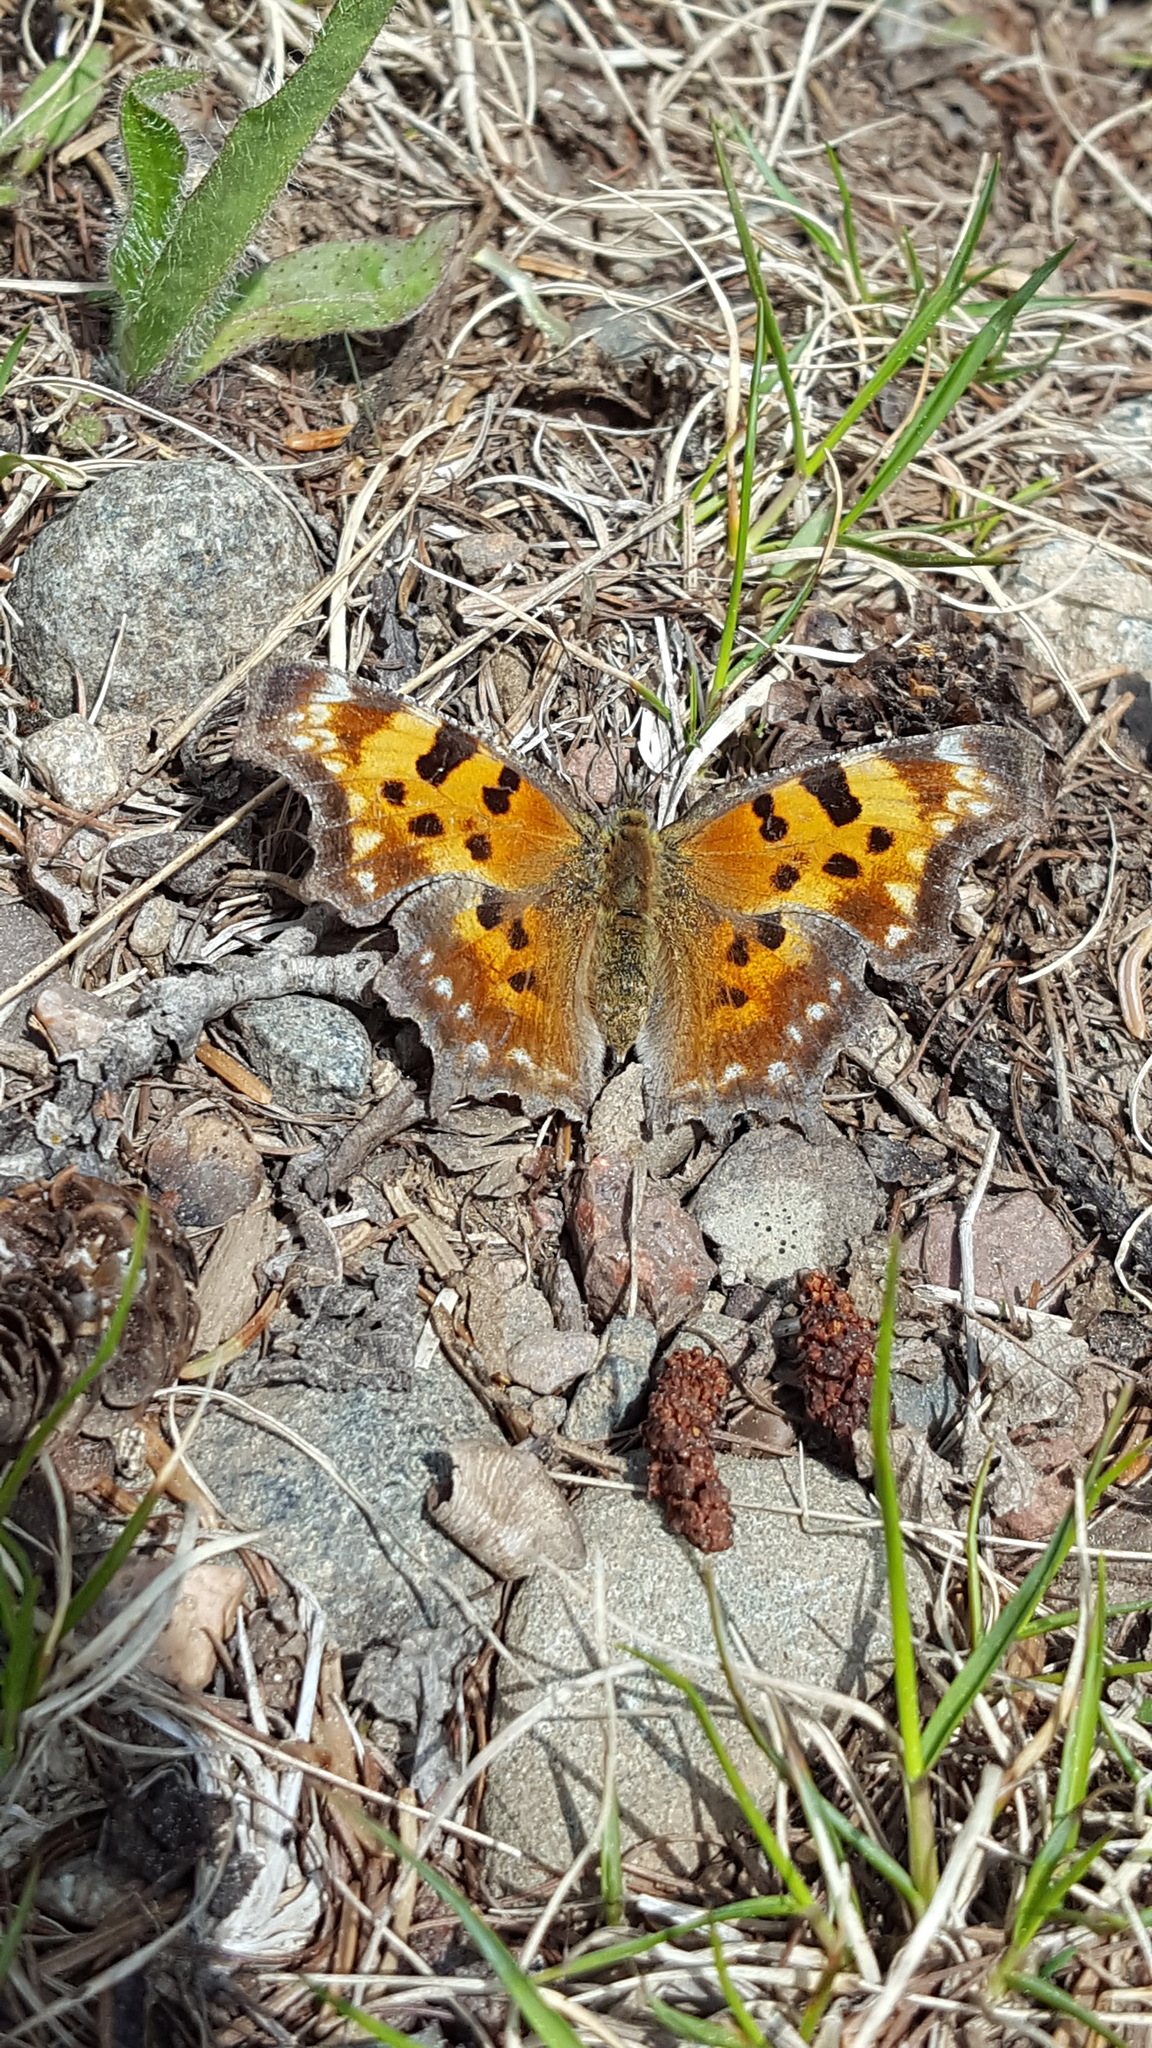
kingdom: Animalia
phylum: Arthropoda
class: Insecta
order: Lepidoptera
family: Nymphalidae
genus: Polygonia
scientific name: Polygonia faunus
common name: Green comma
